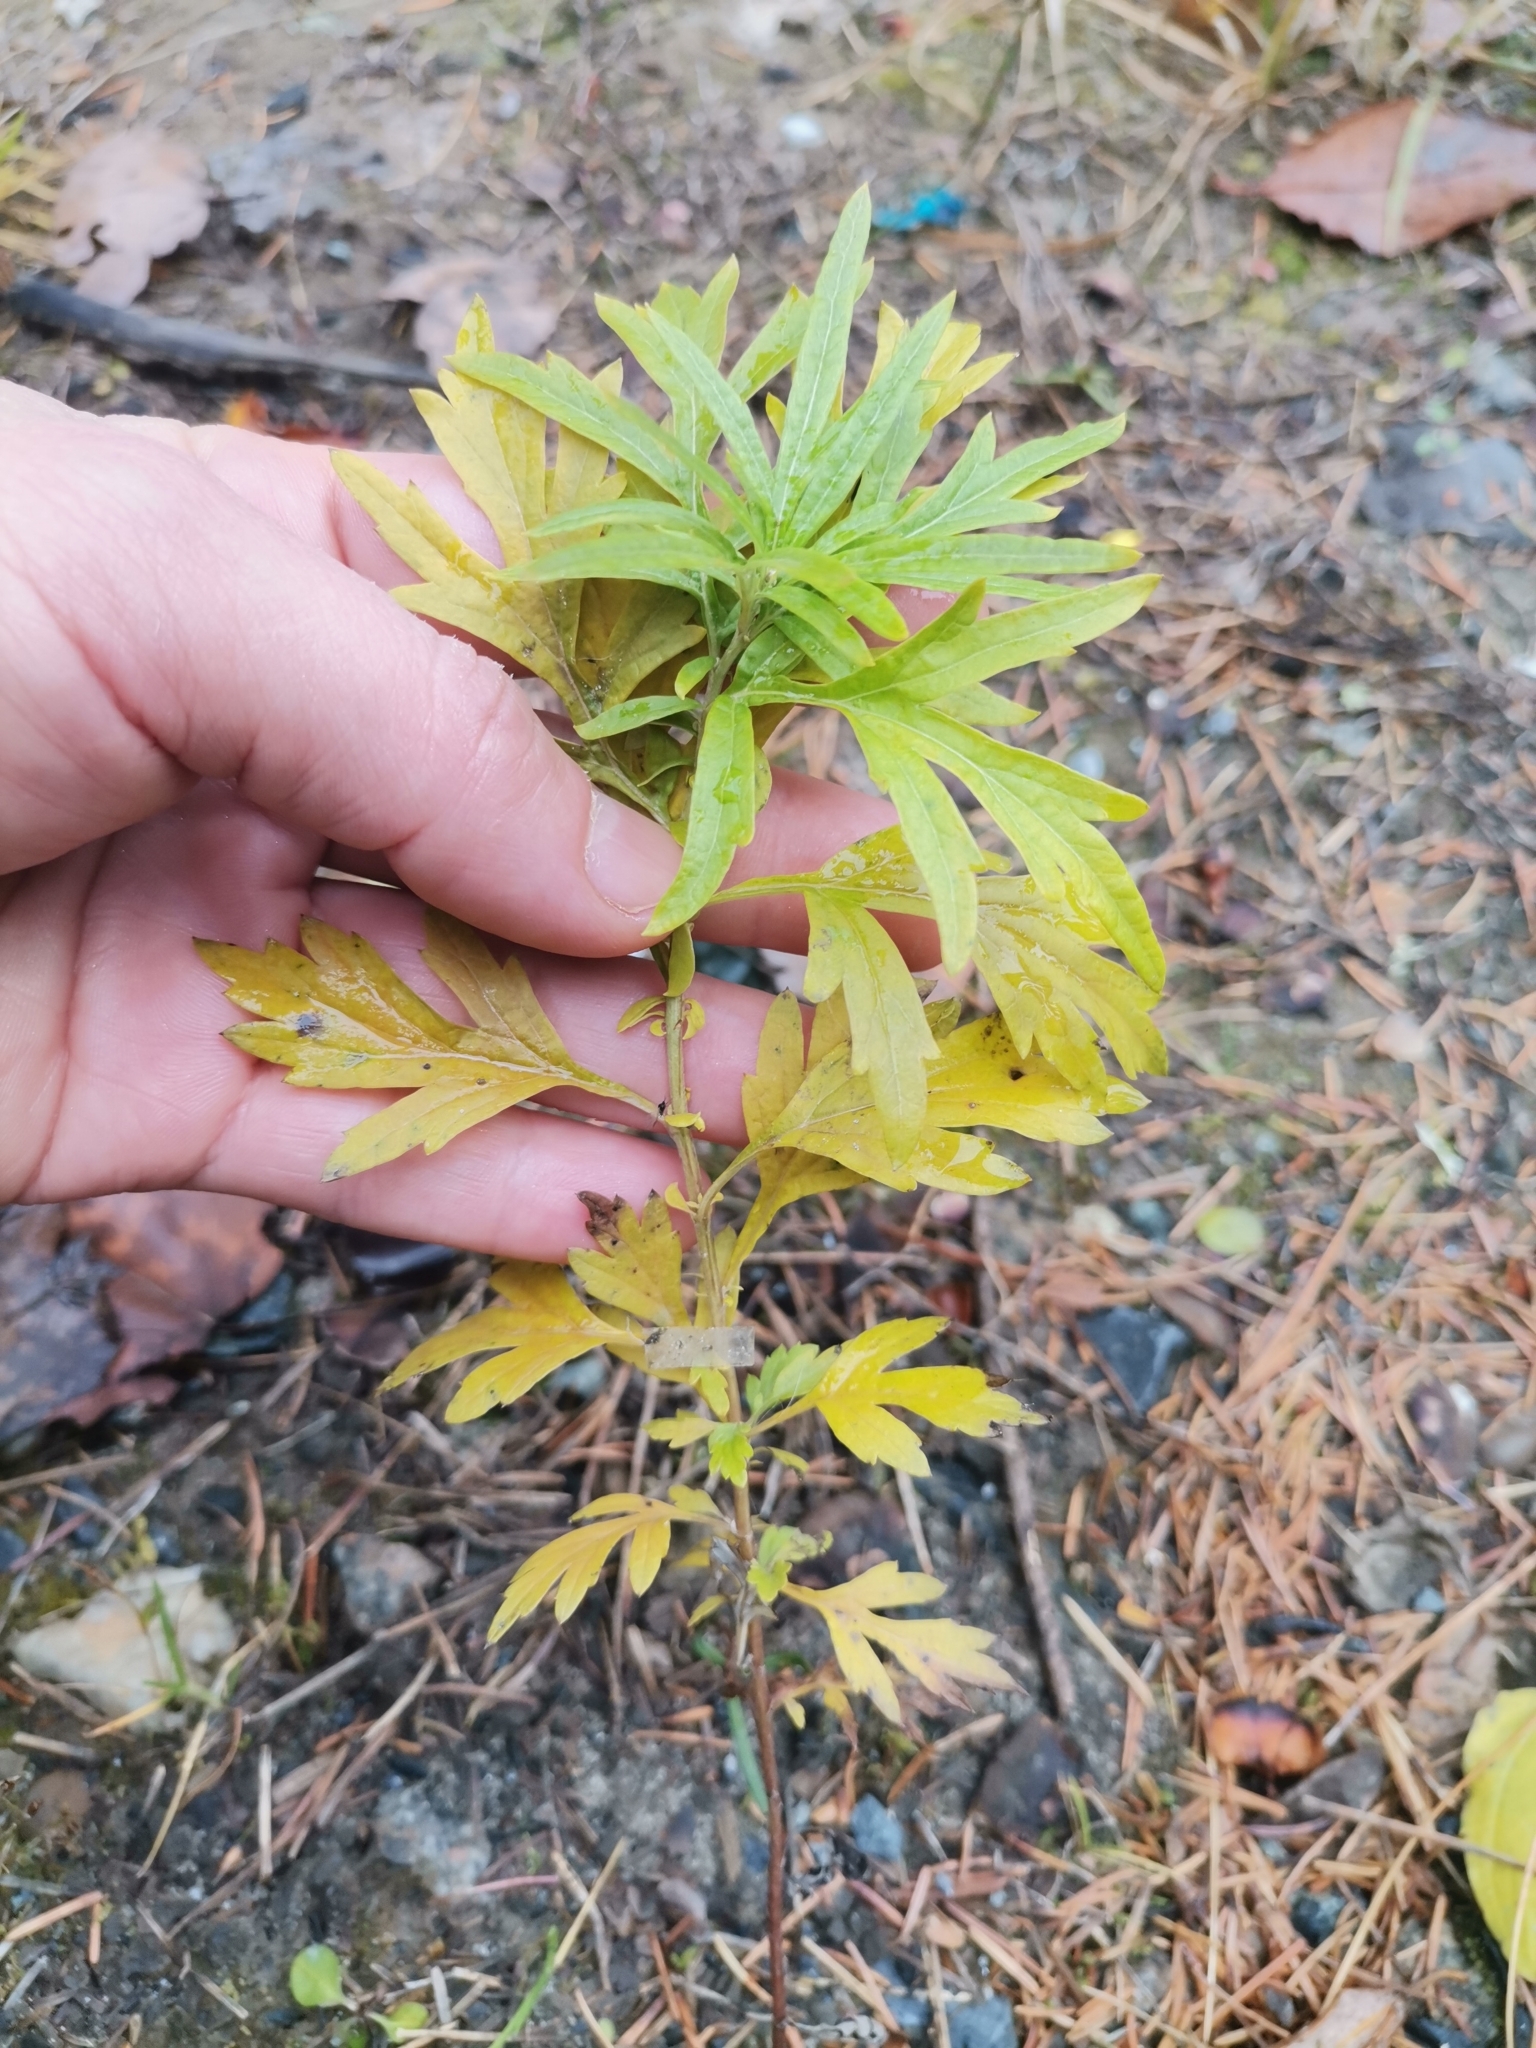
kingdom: Plantae
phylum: Tracheophyta
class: Magnoliopsida
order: Asterales
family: Asteraceae
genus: Artemisia
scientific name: Artemisia vulgaris
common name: Mugwort
